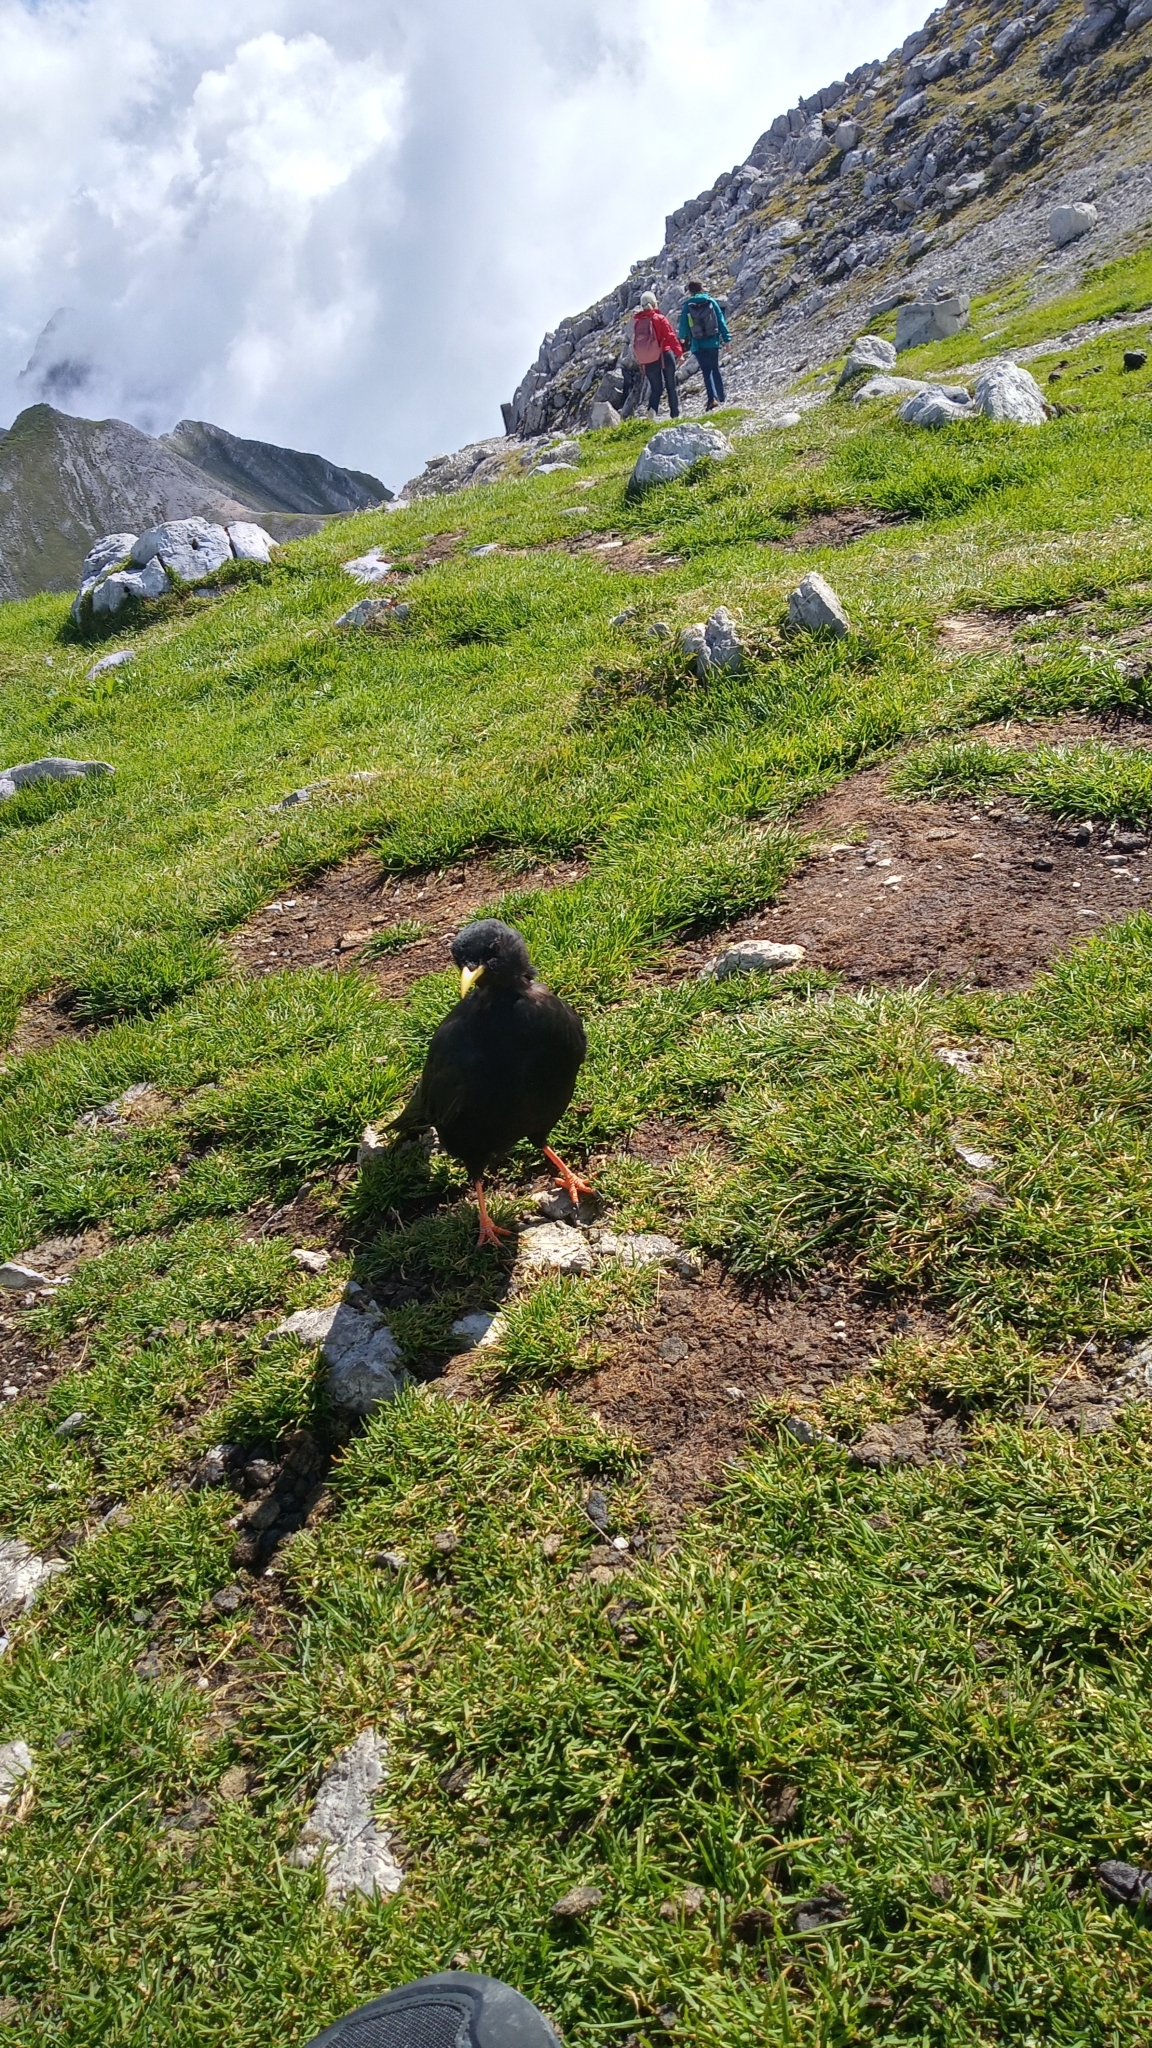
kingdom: Animalia
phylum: Chordata
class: Aves
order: Passeriformes
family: Corvidae
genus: Pyrrhocorax
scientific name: Pyrrhocorax graculus
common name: Alpine chough
